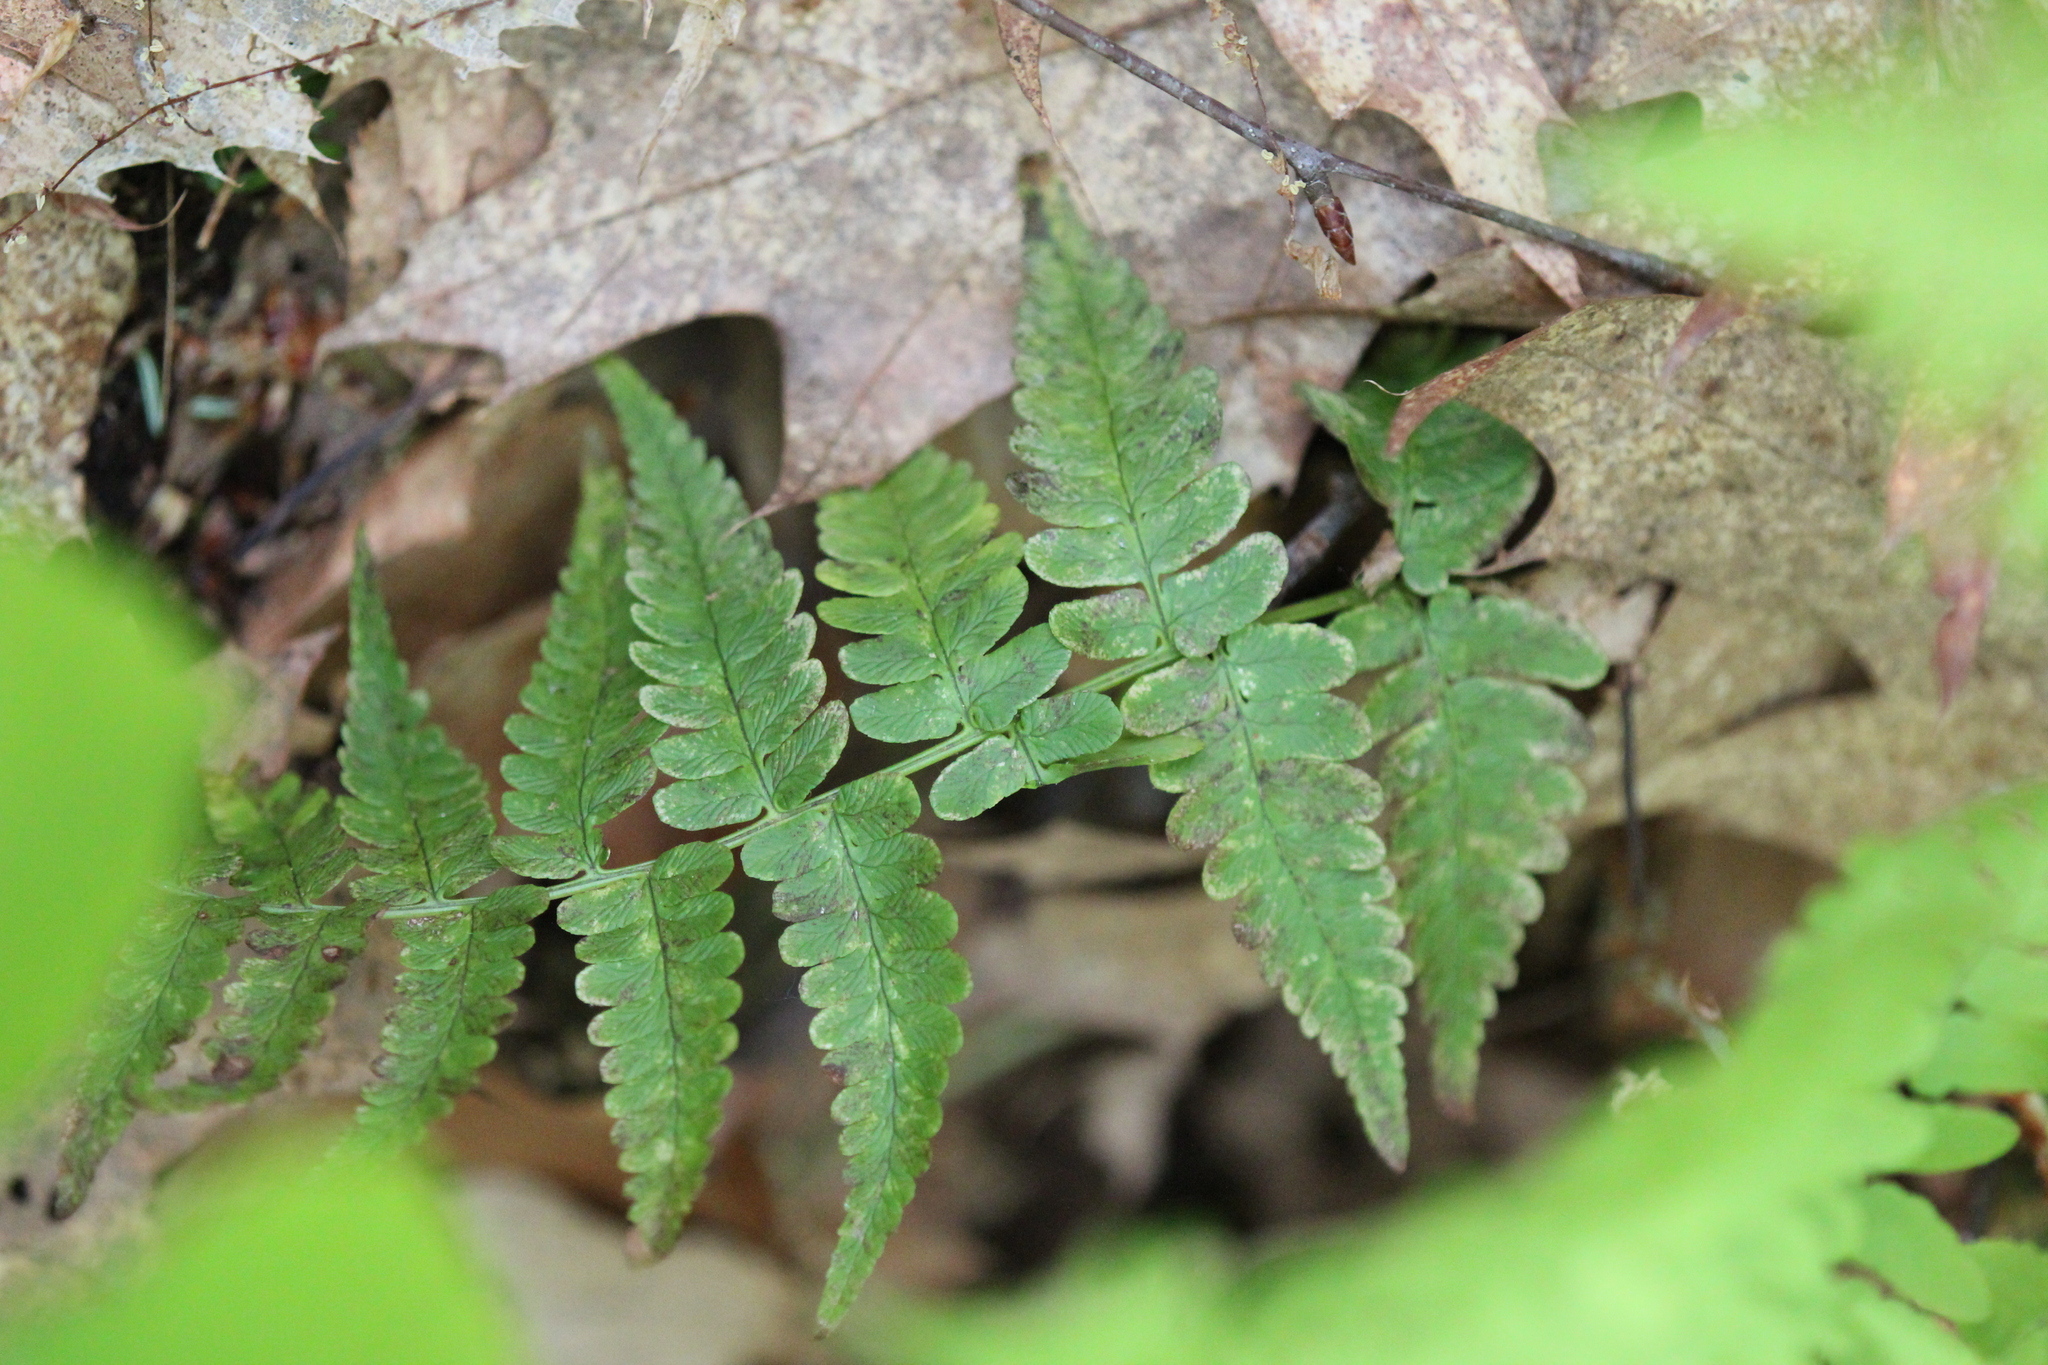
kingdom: Plantae
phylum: Tracheophyta
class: Polypodiopsida
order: Polypodiales
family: Dryopteridaceae
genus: Dryopteris
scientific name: Dryopteris marginalis
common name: Marginal wood fern
